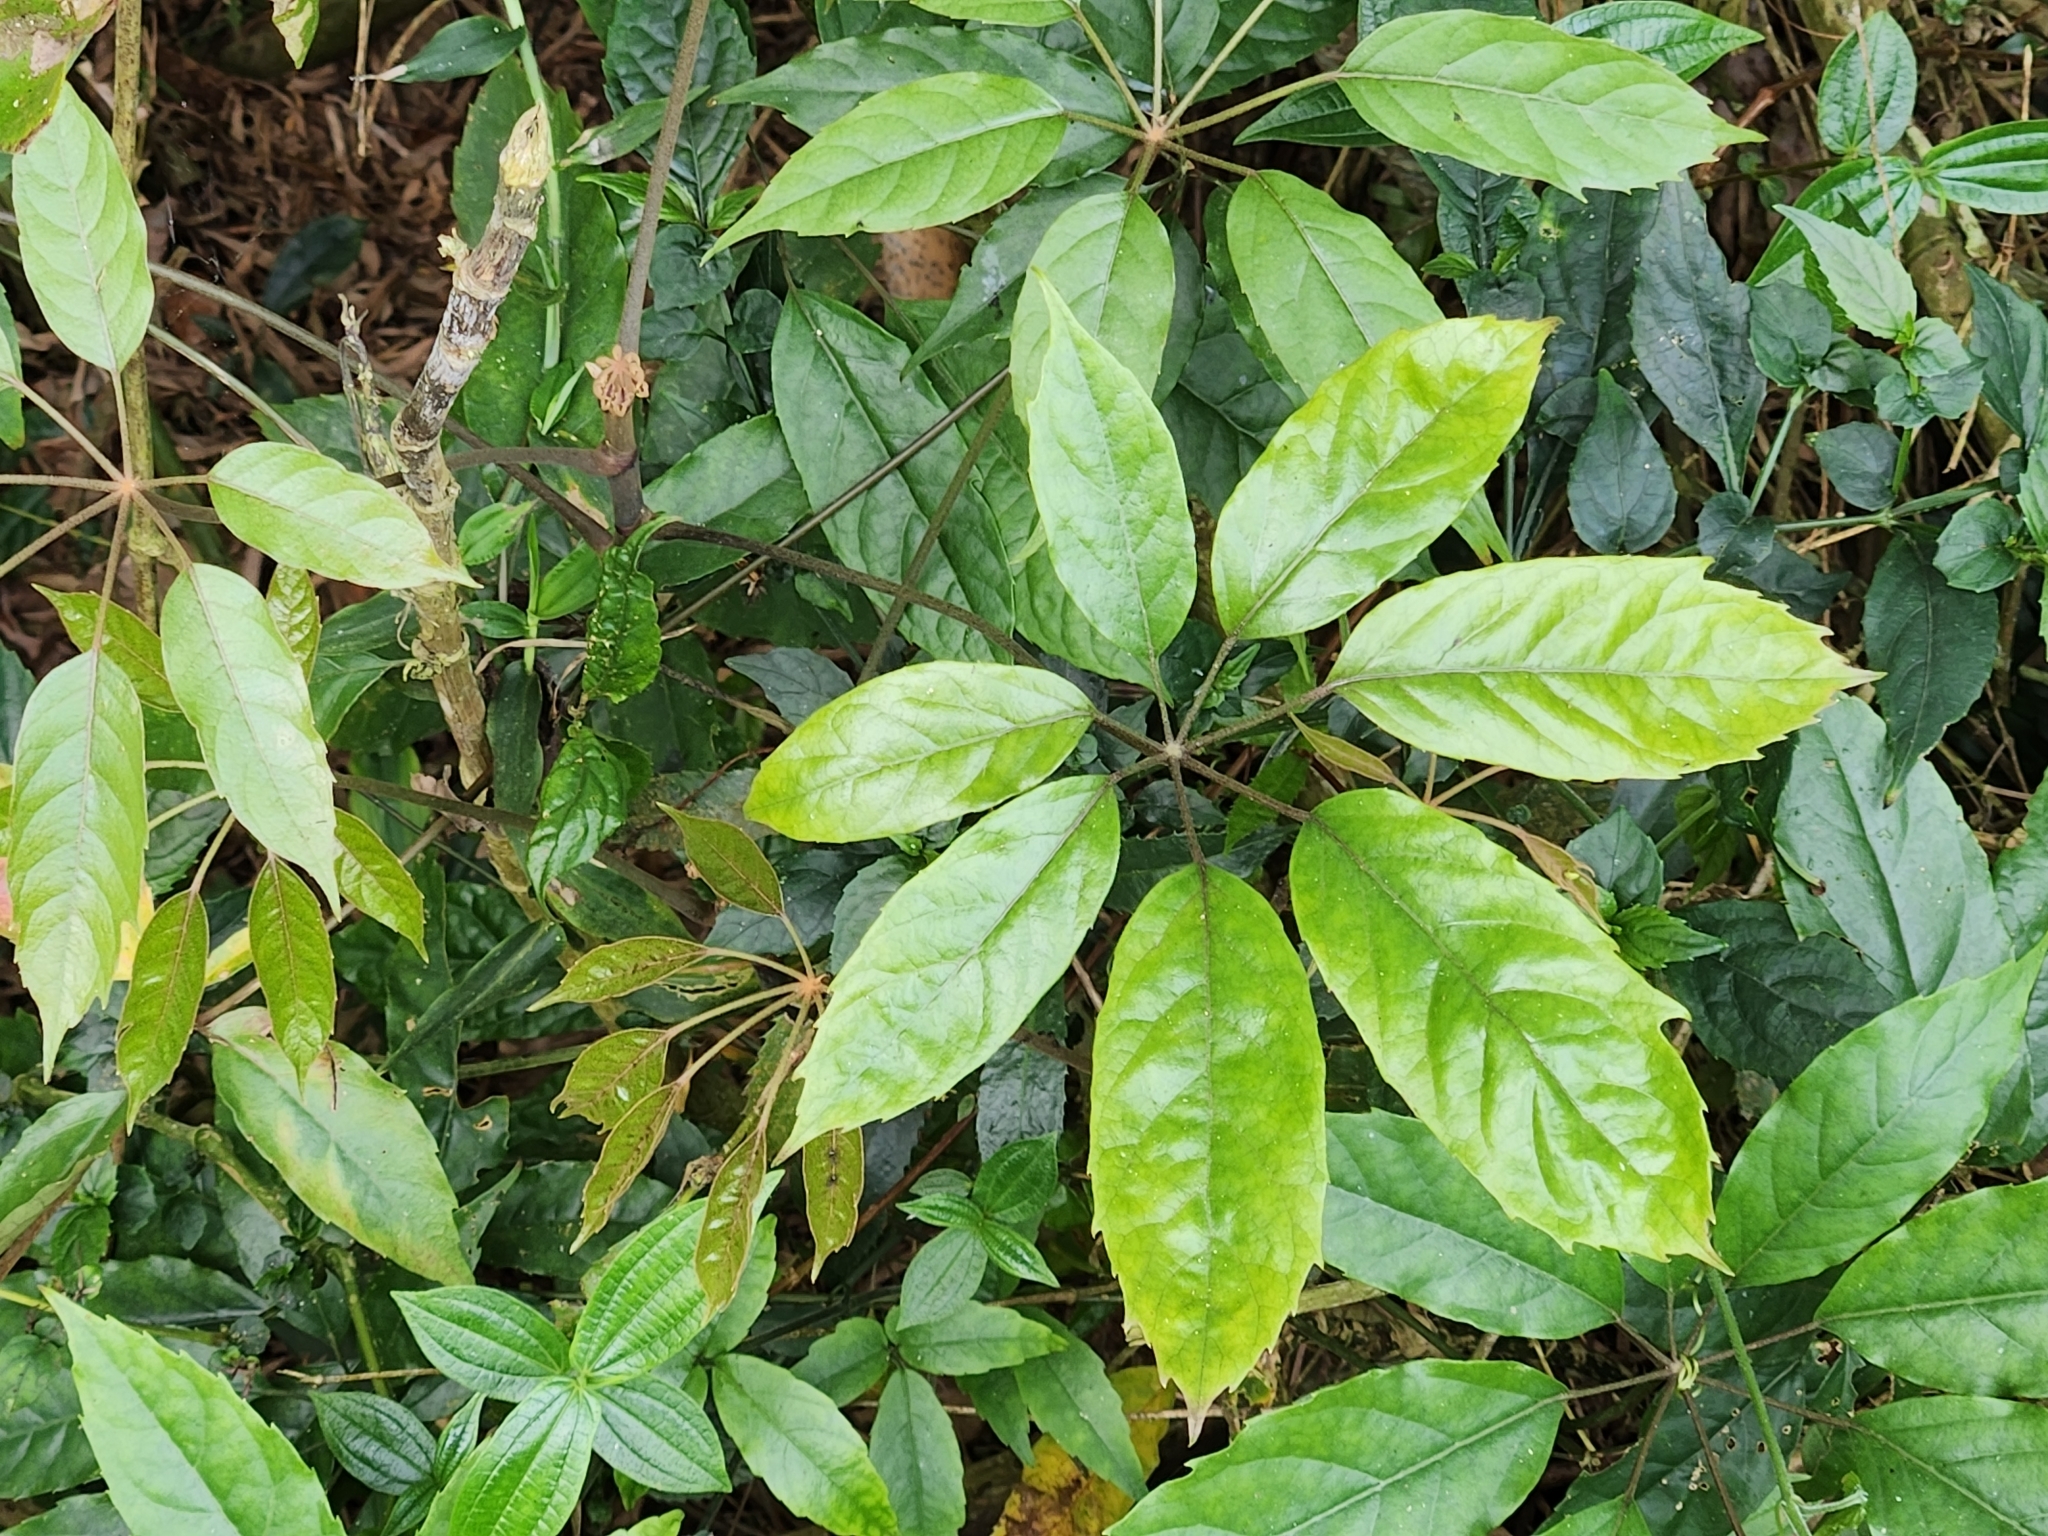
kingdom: Plantae
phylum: Tracheophyta
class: Magnoliopsida
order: Apiales
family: Araliaceae
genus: Heptapleurum
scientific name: Heptapleurum heptaphyllum
